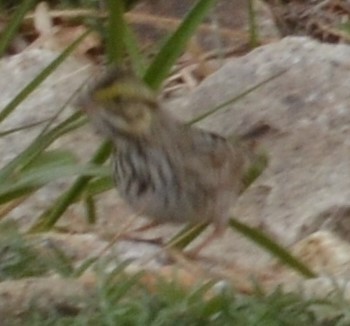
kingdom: Animalia
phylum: Chordata
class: Aves
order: Passeriformes
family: Passerellidae
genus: Passerculus
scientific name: Passerculus sandwichensis
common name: Savannah sparrow
